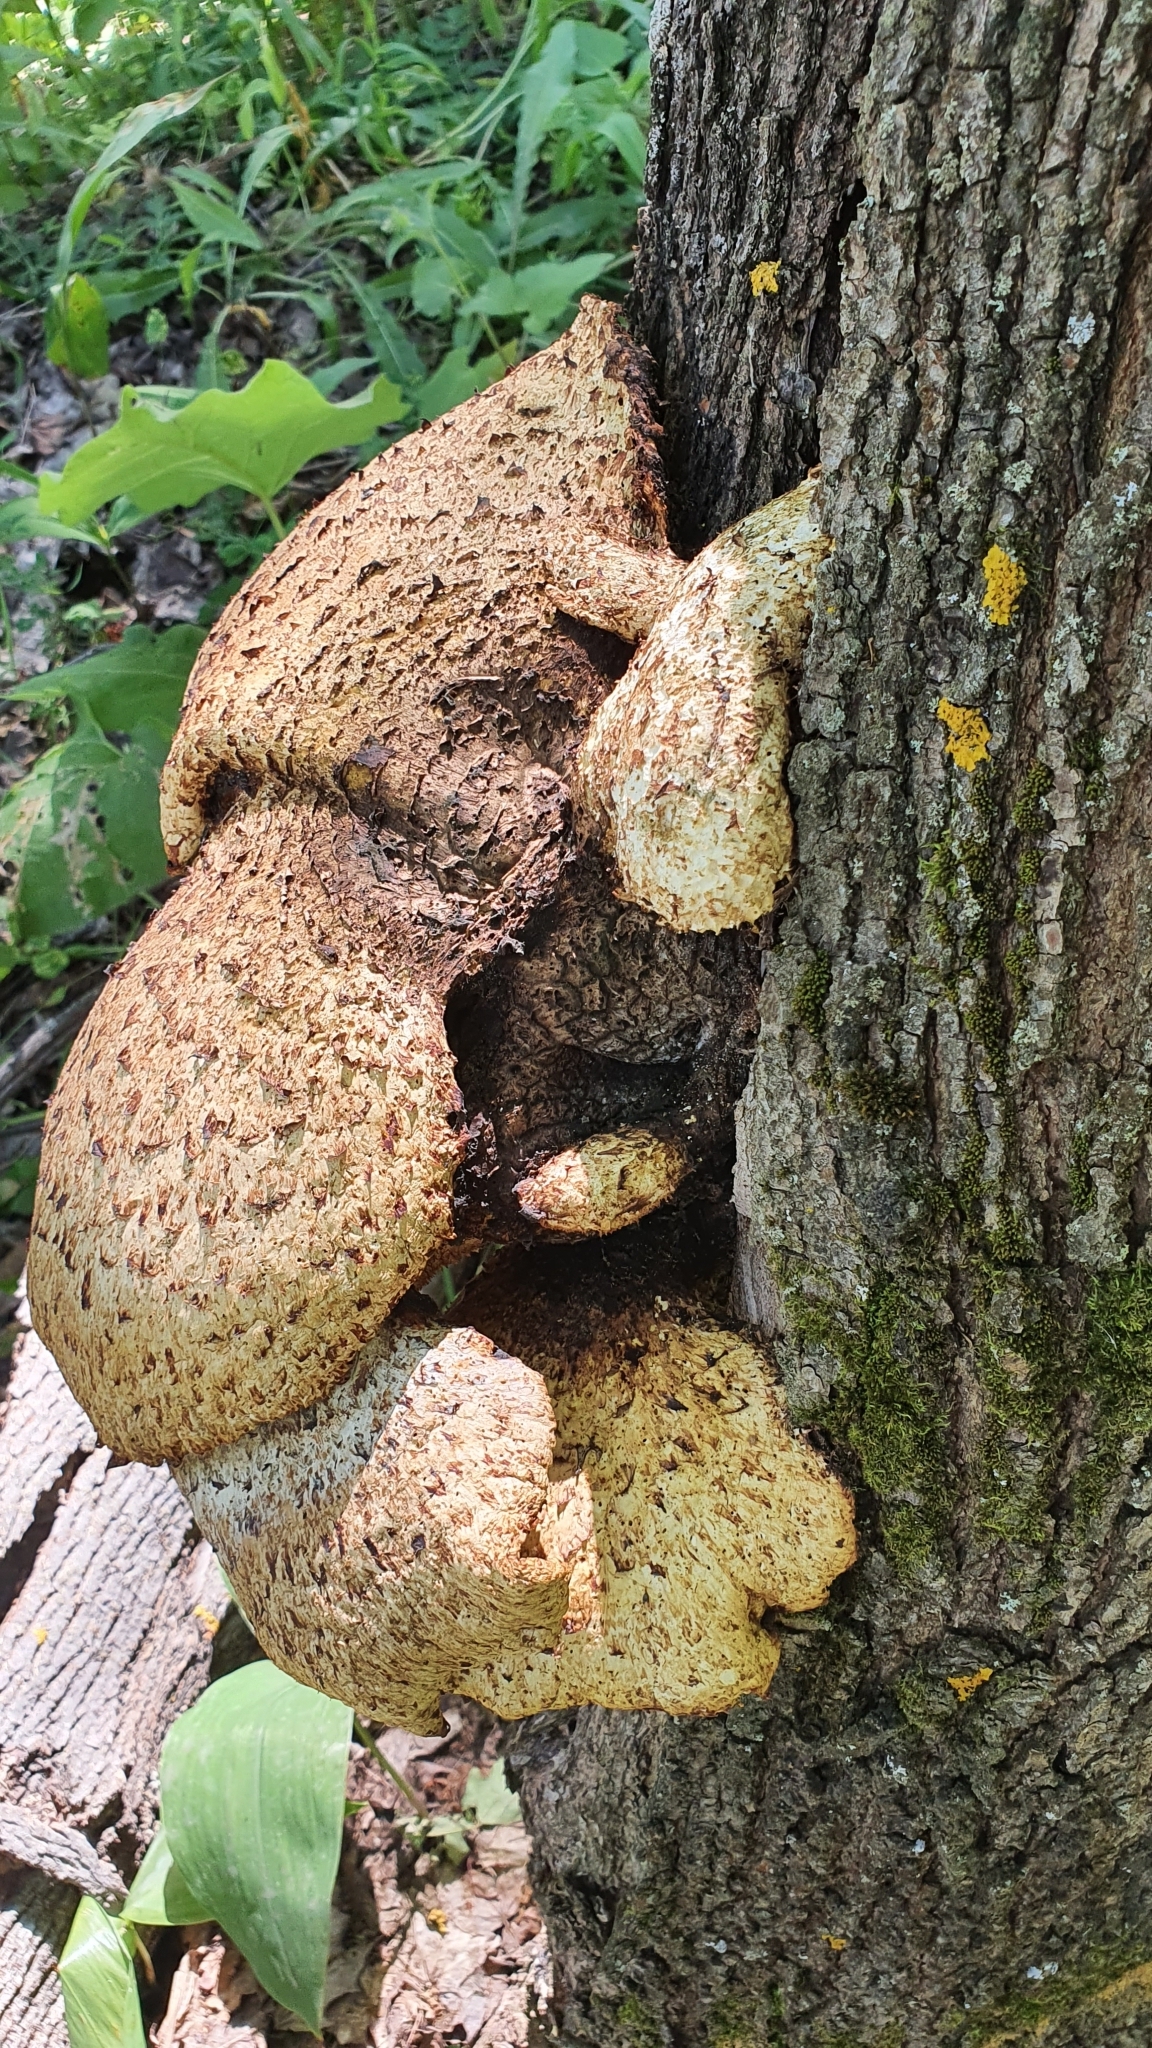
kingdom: Fungi
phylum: Basidiomycota
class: Agaricomycetes
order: Polyporales
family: Polyporaceae
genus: Cerioporus
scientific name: Cerioporus squamosus
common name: Dryad's saddle
